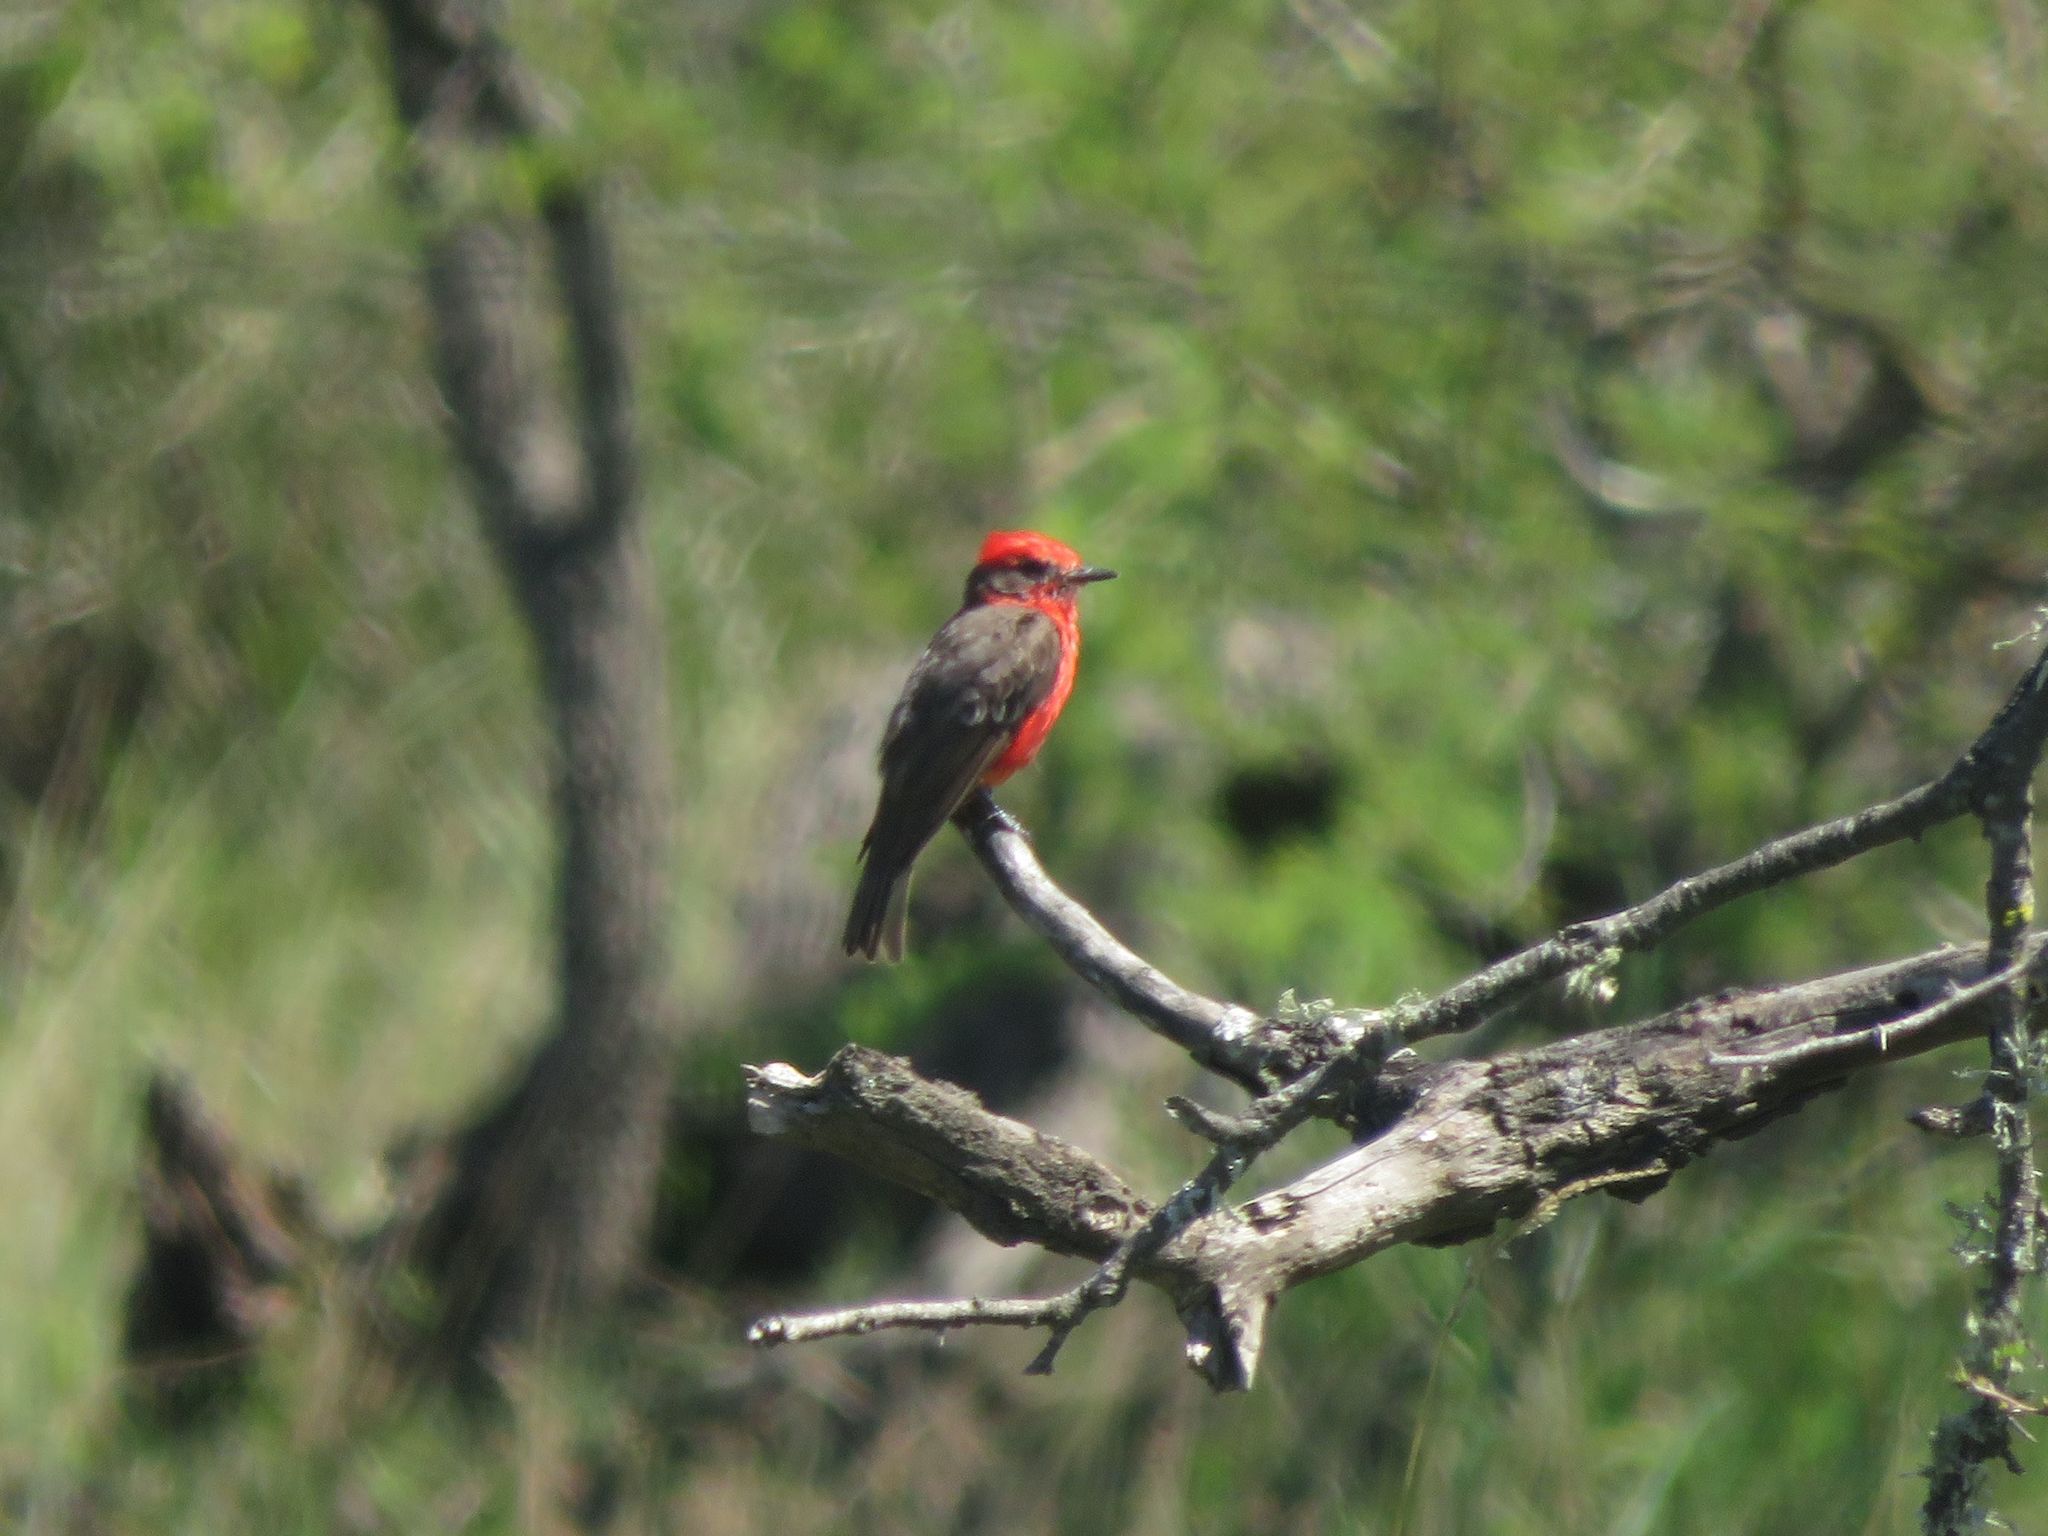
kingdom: Animalia
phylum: Chordata
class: Aves
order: Passeriformes
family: Tyrannidae
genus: Pyrocephalus
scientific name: Pyrocephalus rubinus
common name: Vermilion flycatcher
